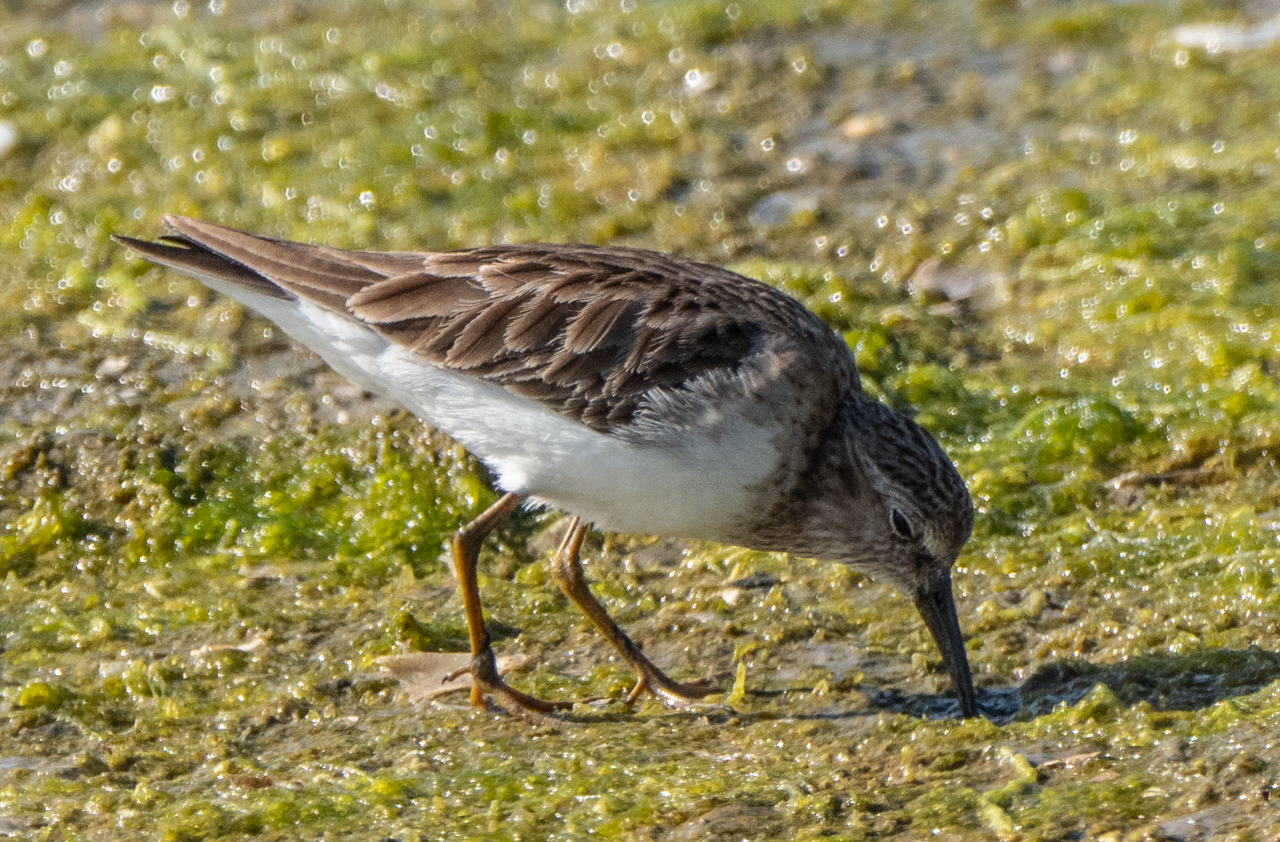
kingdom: Animalia
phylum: Chordata
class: Aves
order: Charadriiformes
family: Scolopacidae
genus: Calidris
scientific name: Calidris minutilla
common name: Least sandpiper
